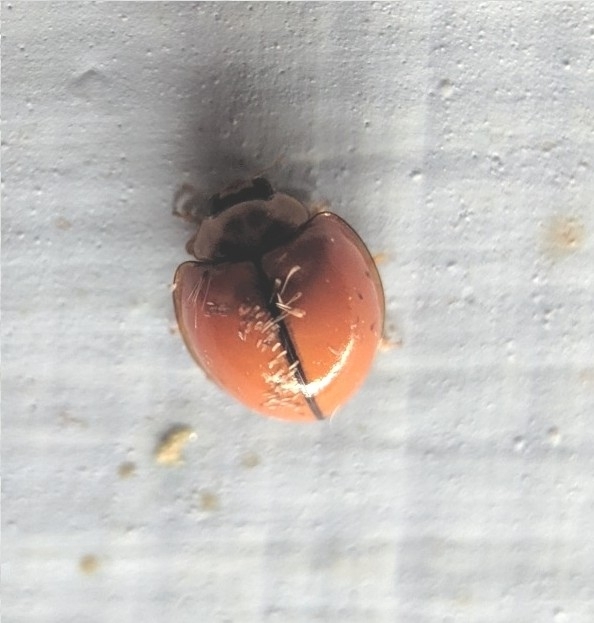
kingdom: Animalia
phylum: Arthropoda
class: Insecta
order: Coleoptera
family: Coccinellidae
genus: Micraspis
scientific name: Micraspis
